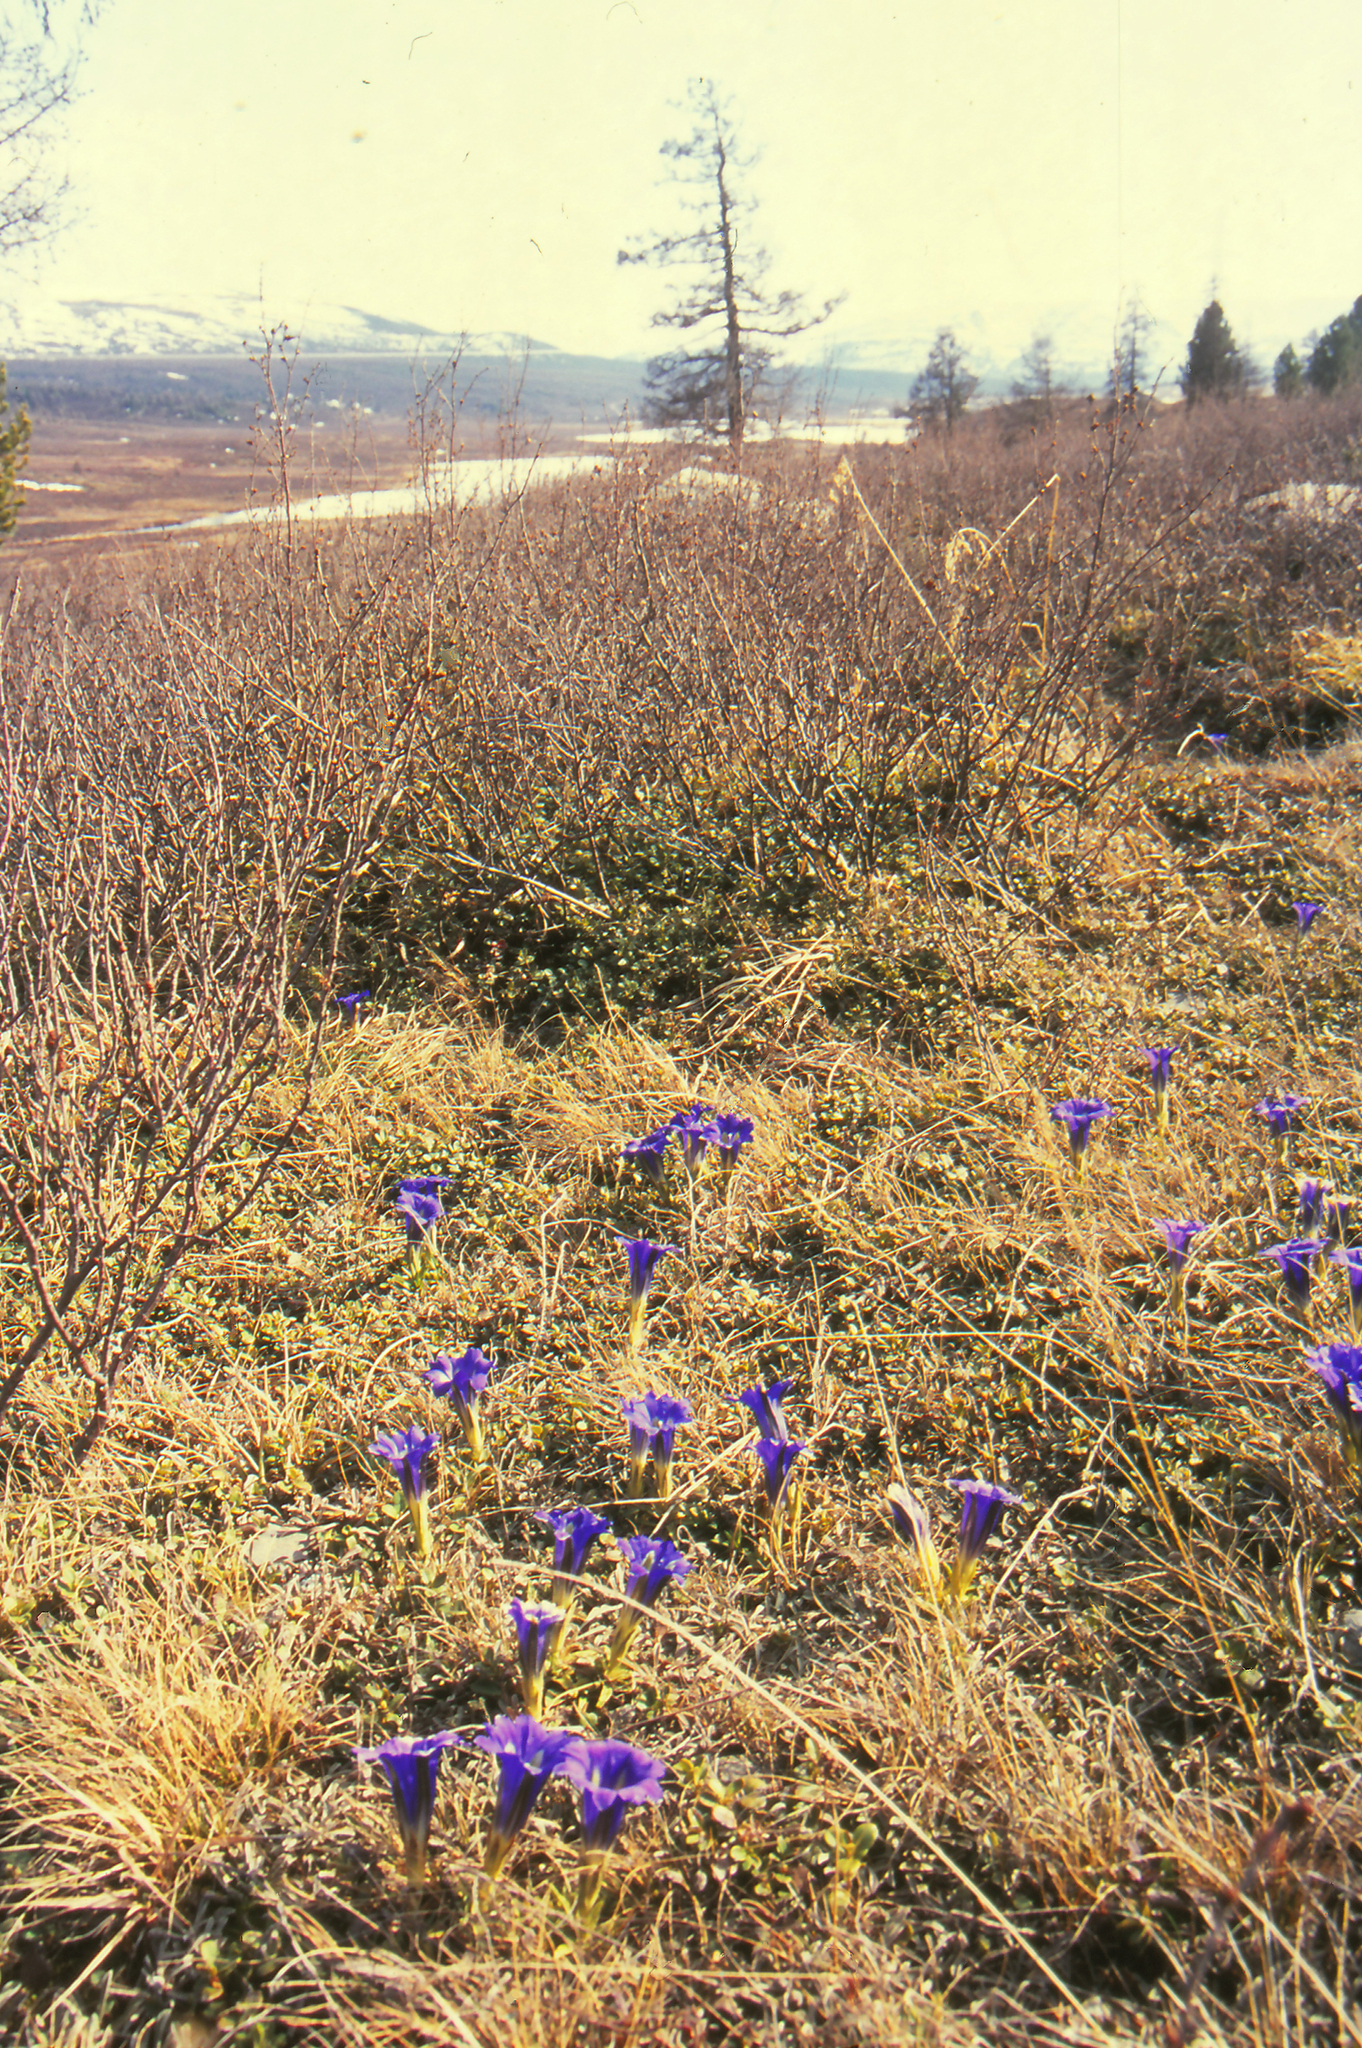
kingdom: Plantae
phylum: Tracheophyta
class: Magnoliopsida
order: Gentianales
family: Gentianaceae
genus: Gentiana
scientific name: Gentiana grandiflora
